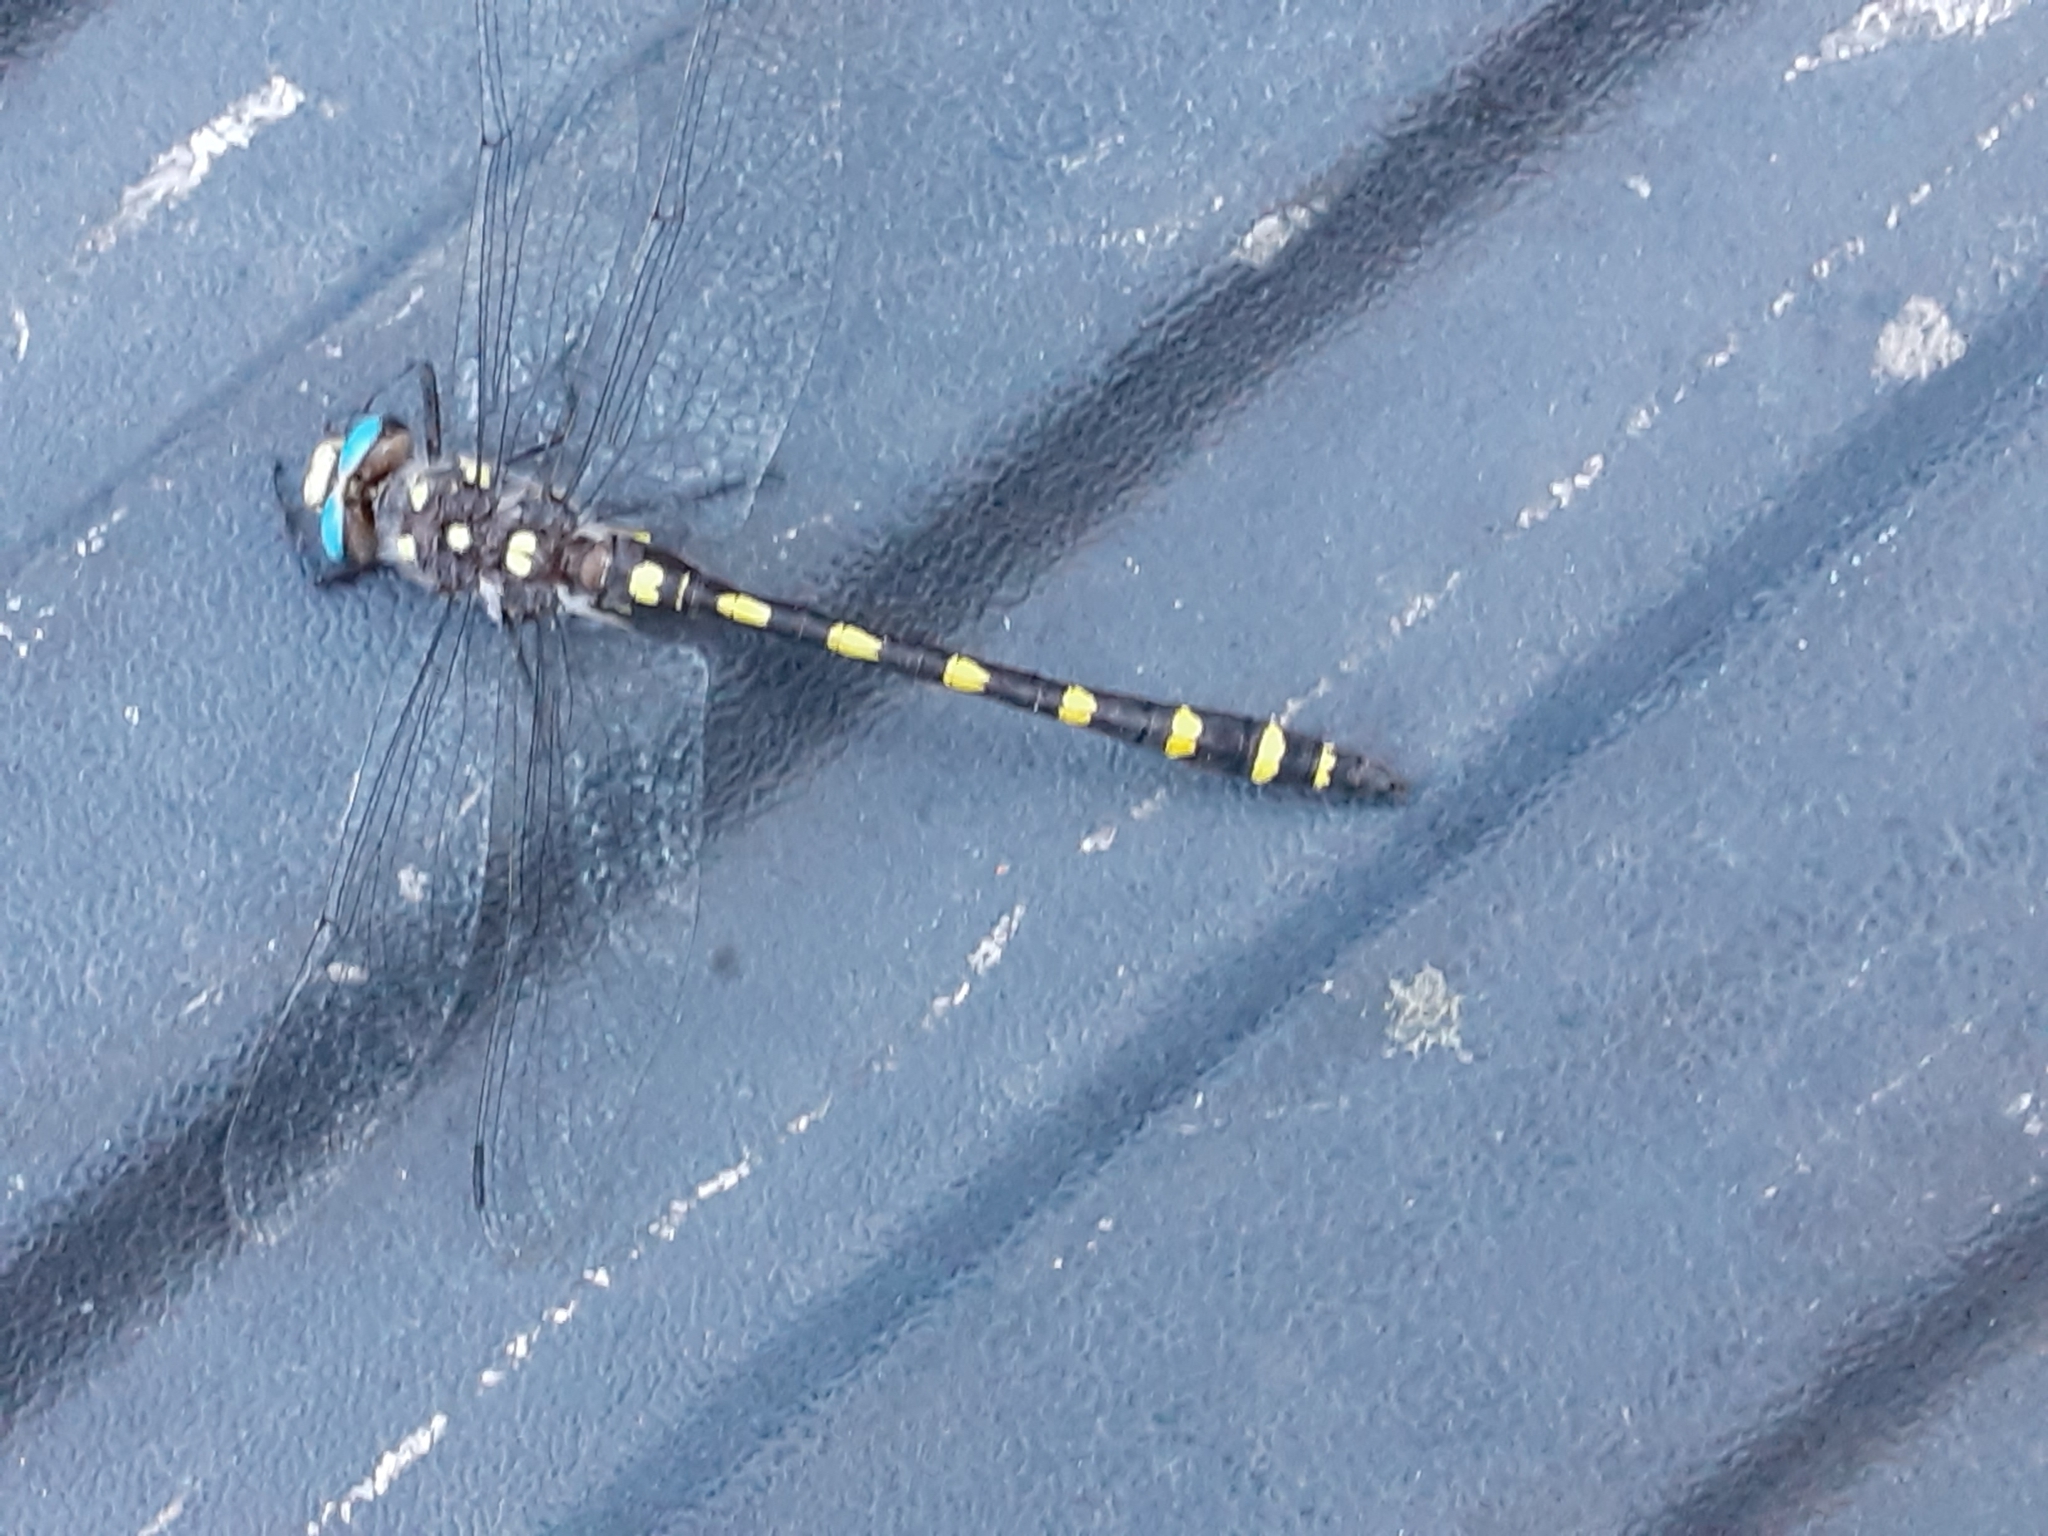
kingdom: Animalia
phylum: Arthropoda
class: Insecta
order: Odonata
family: Cordulegastridae
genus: Cordulegaster
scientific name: Cordulegaster dorsalis
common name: Pacific spiketail
